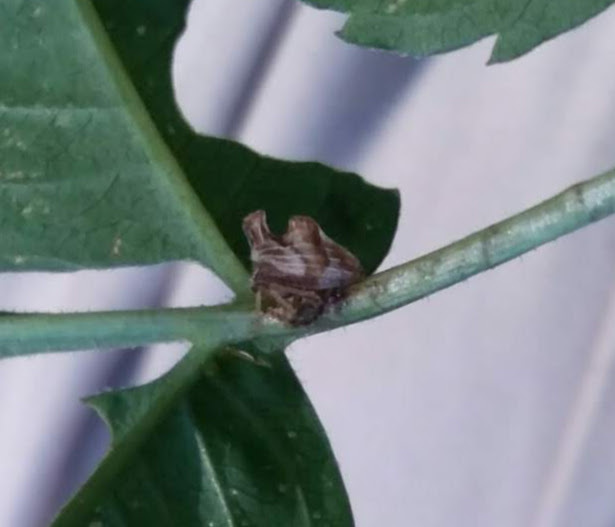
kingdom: Animalia
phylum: Arthropoda
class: Insecta
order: Hemiptera
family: Membracidae
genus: Entylia
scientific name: Entylia carinata
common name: Keeled treehopper
